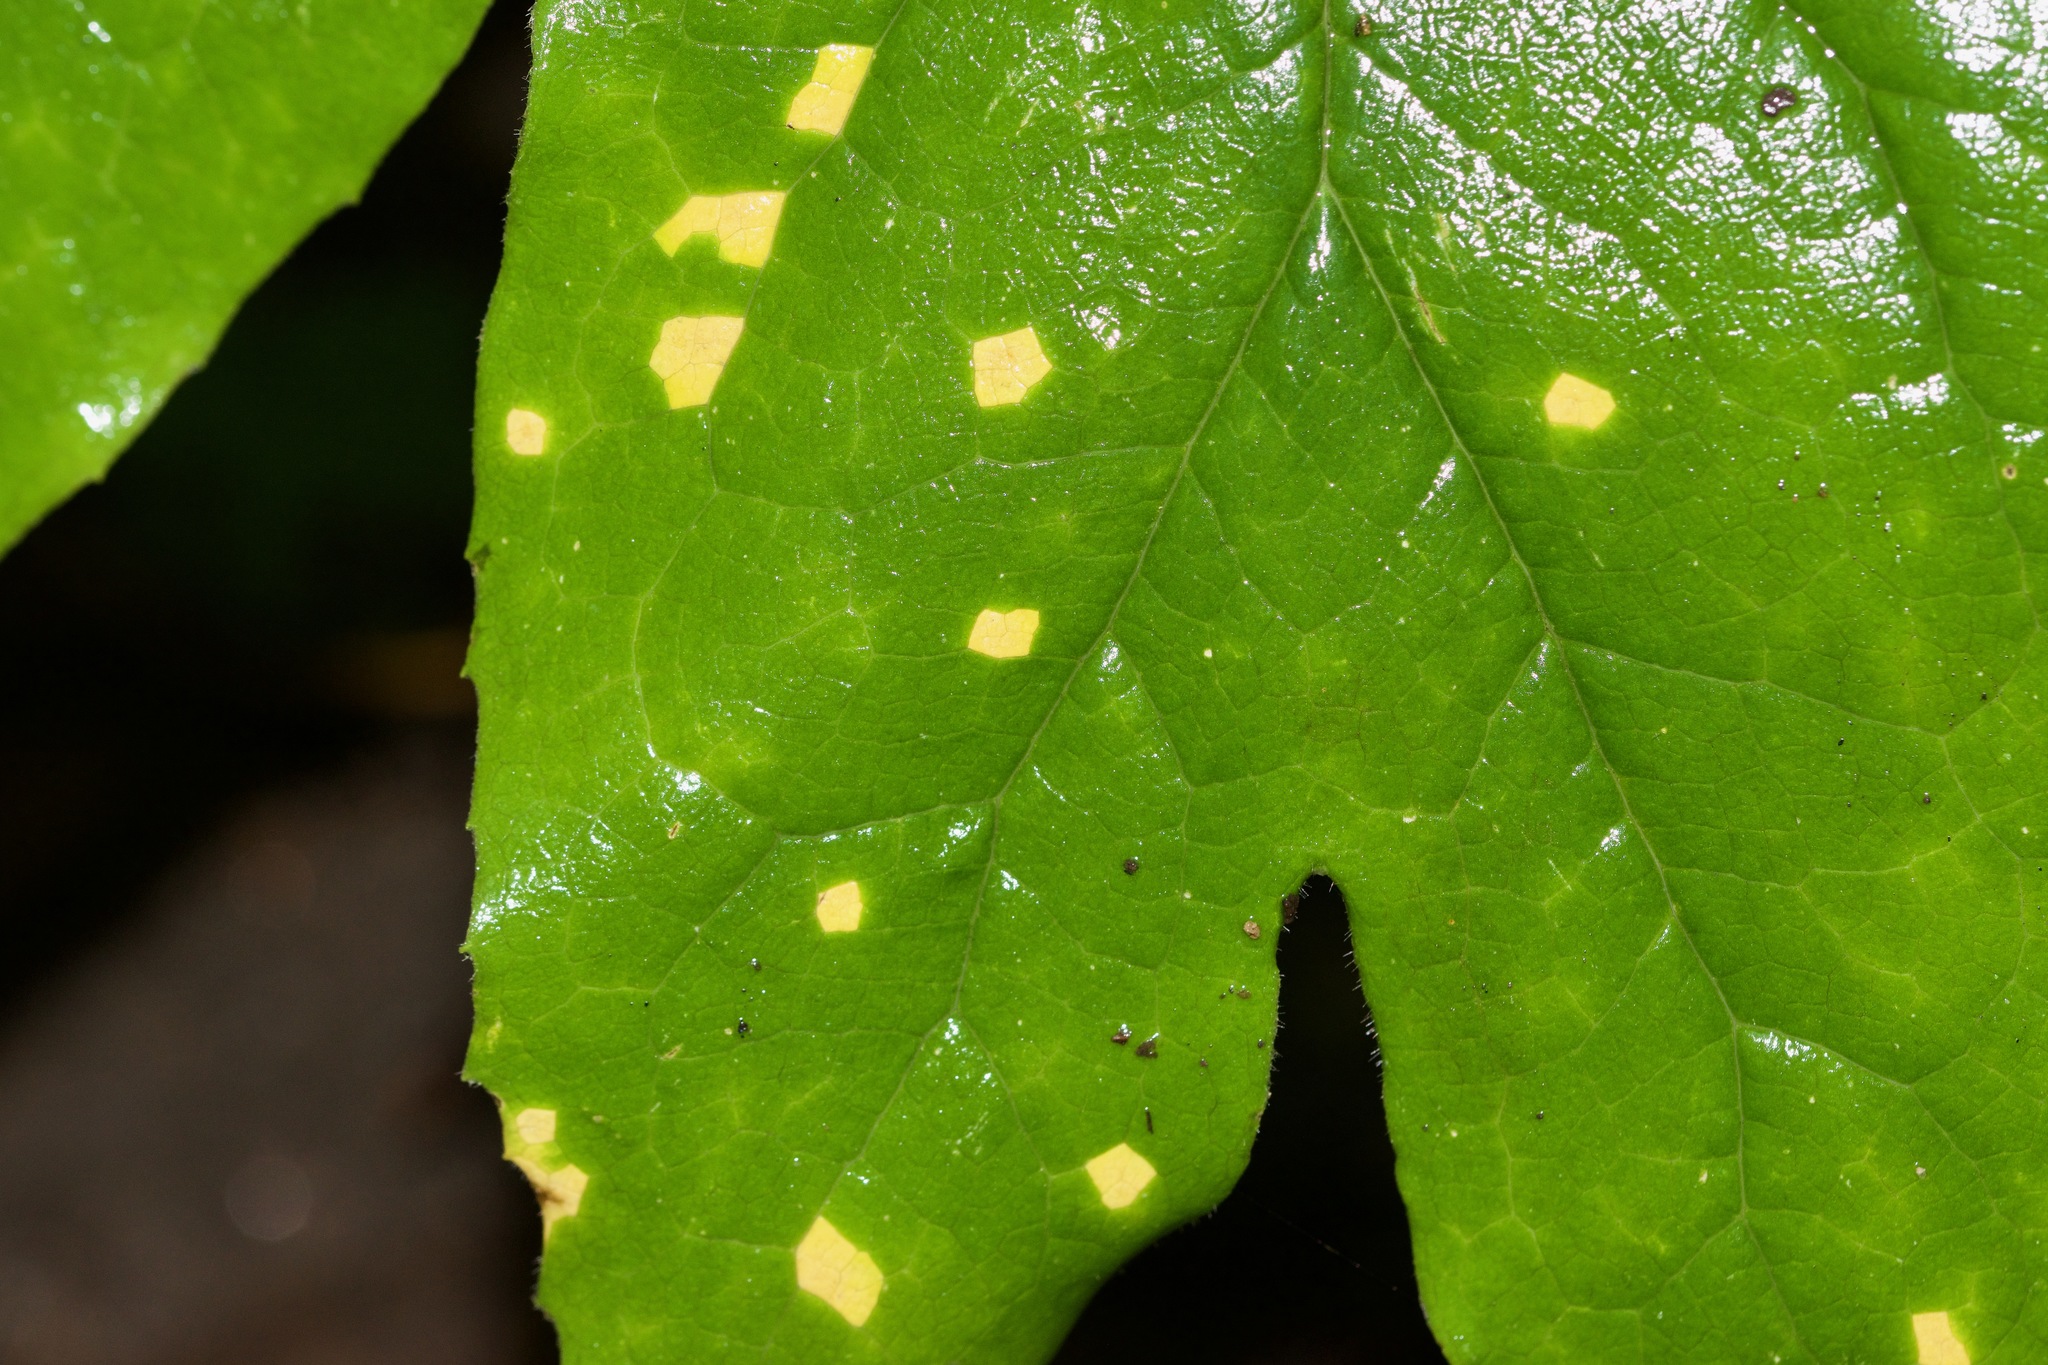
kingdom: Fungi
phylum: Basidiomycota
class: Pucciniomycetes
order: Pucciniales
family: Pucciniaceae
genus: Puccinia
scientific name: Puccinia podophylli
